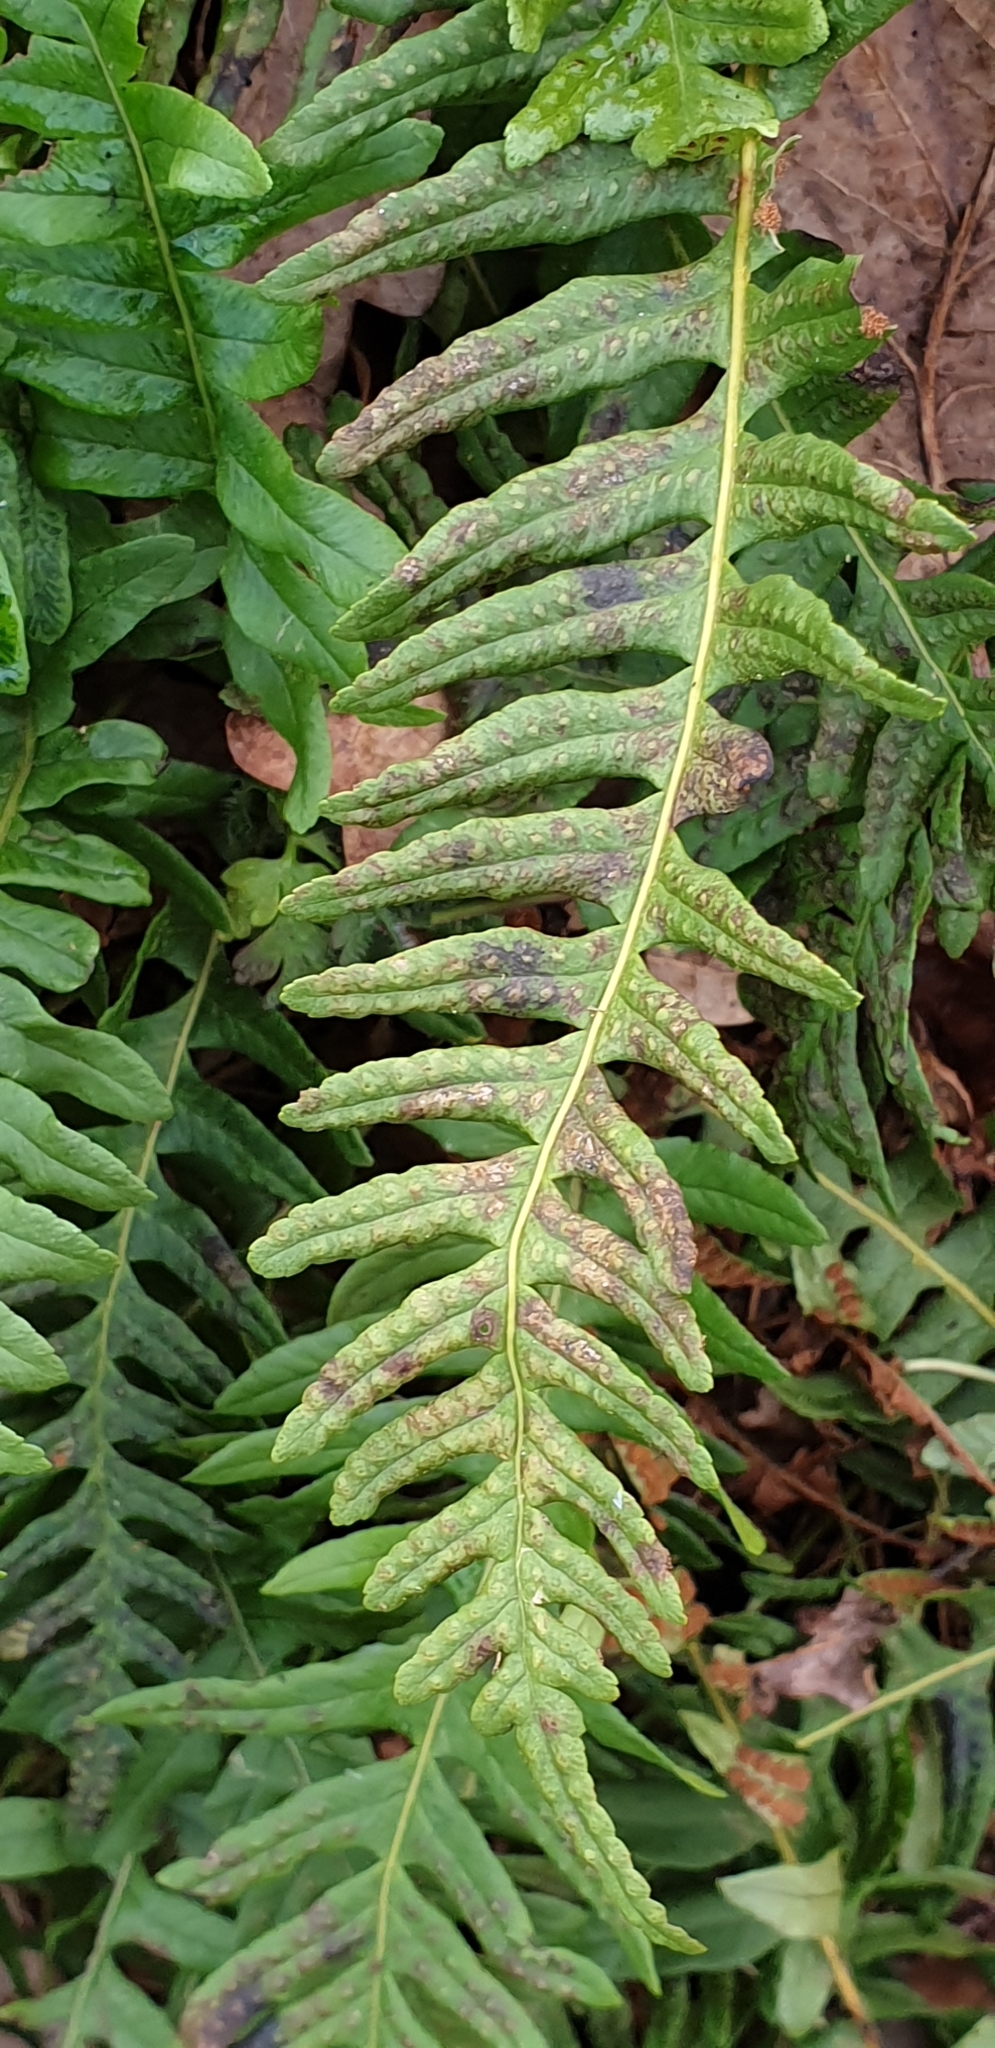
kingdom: Plantae
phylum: Tracheophyta
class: Polypodiopsida
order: Polypodiales
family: Polypodiaceae
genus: Polypodium
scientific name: Polypodium vulgare
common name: Common polypody
